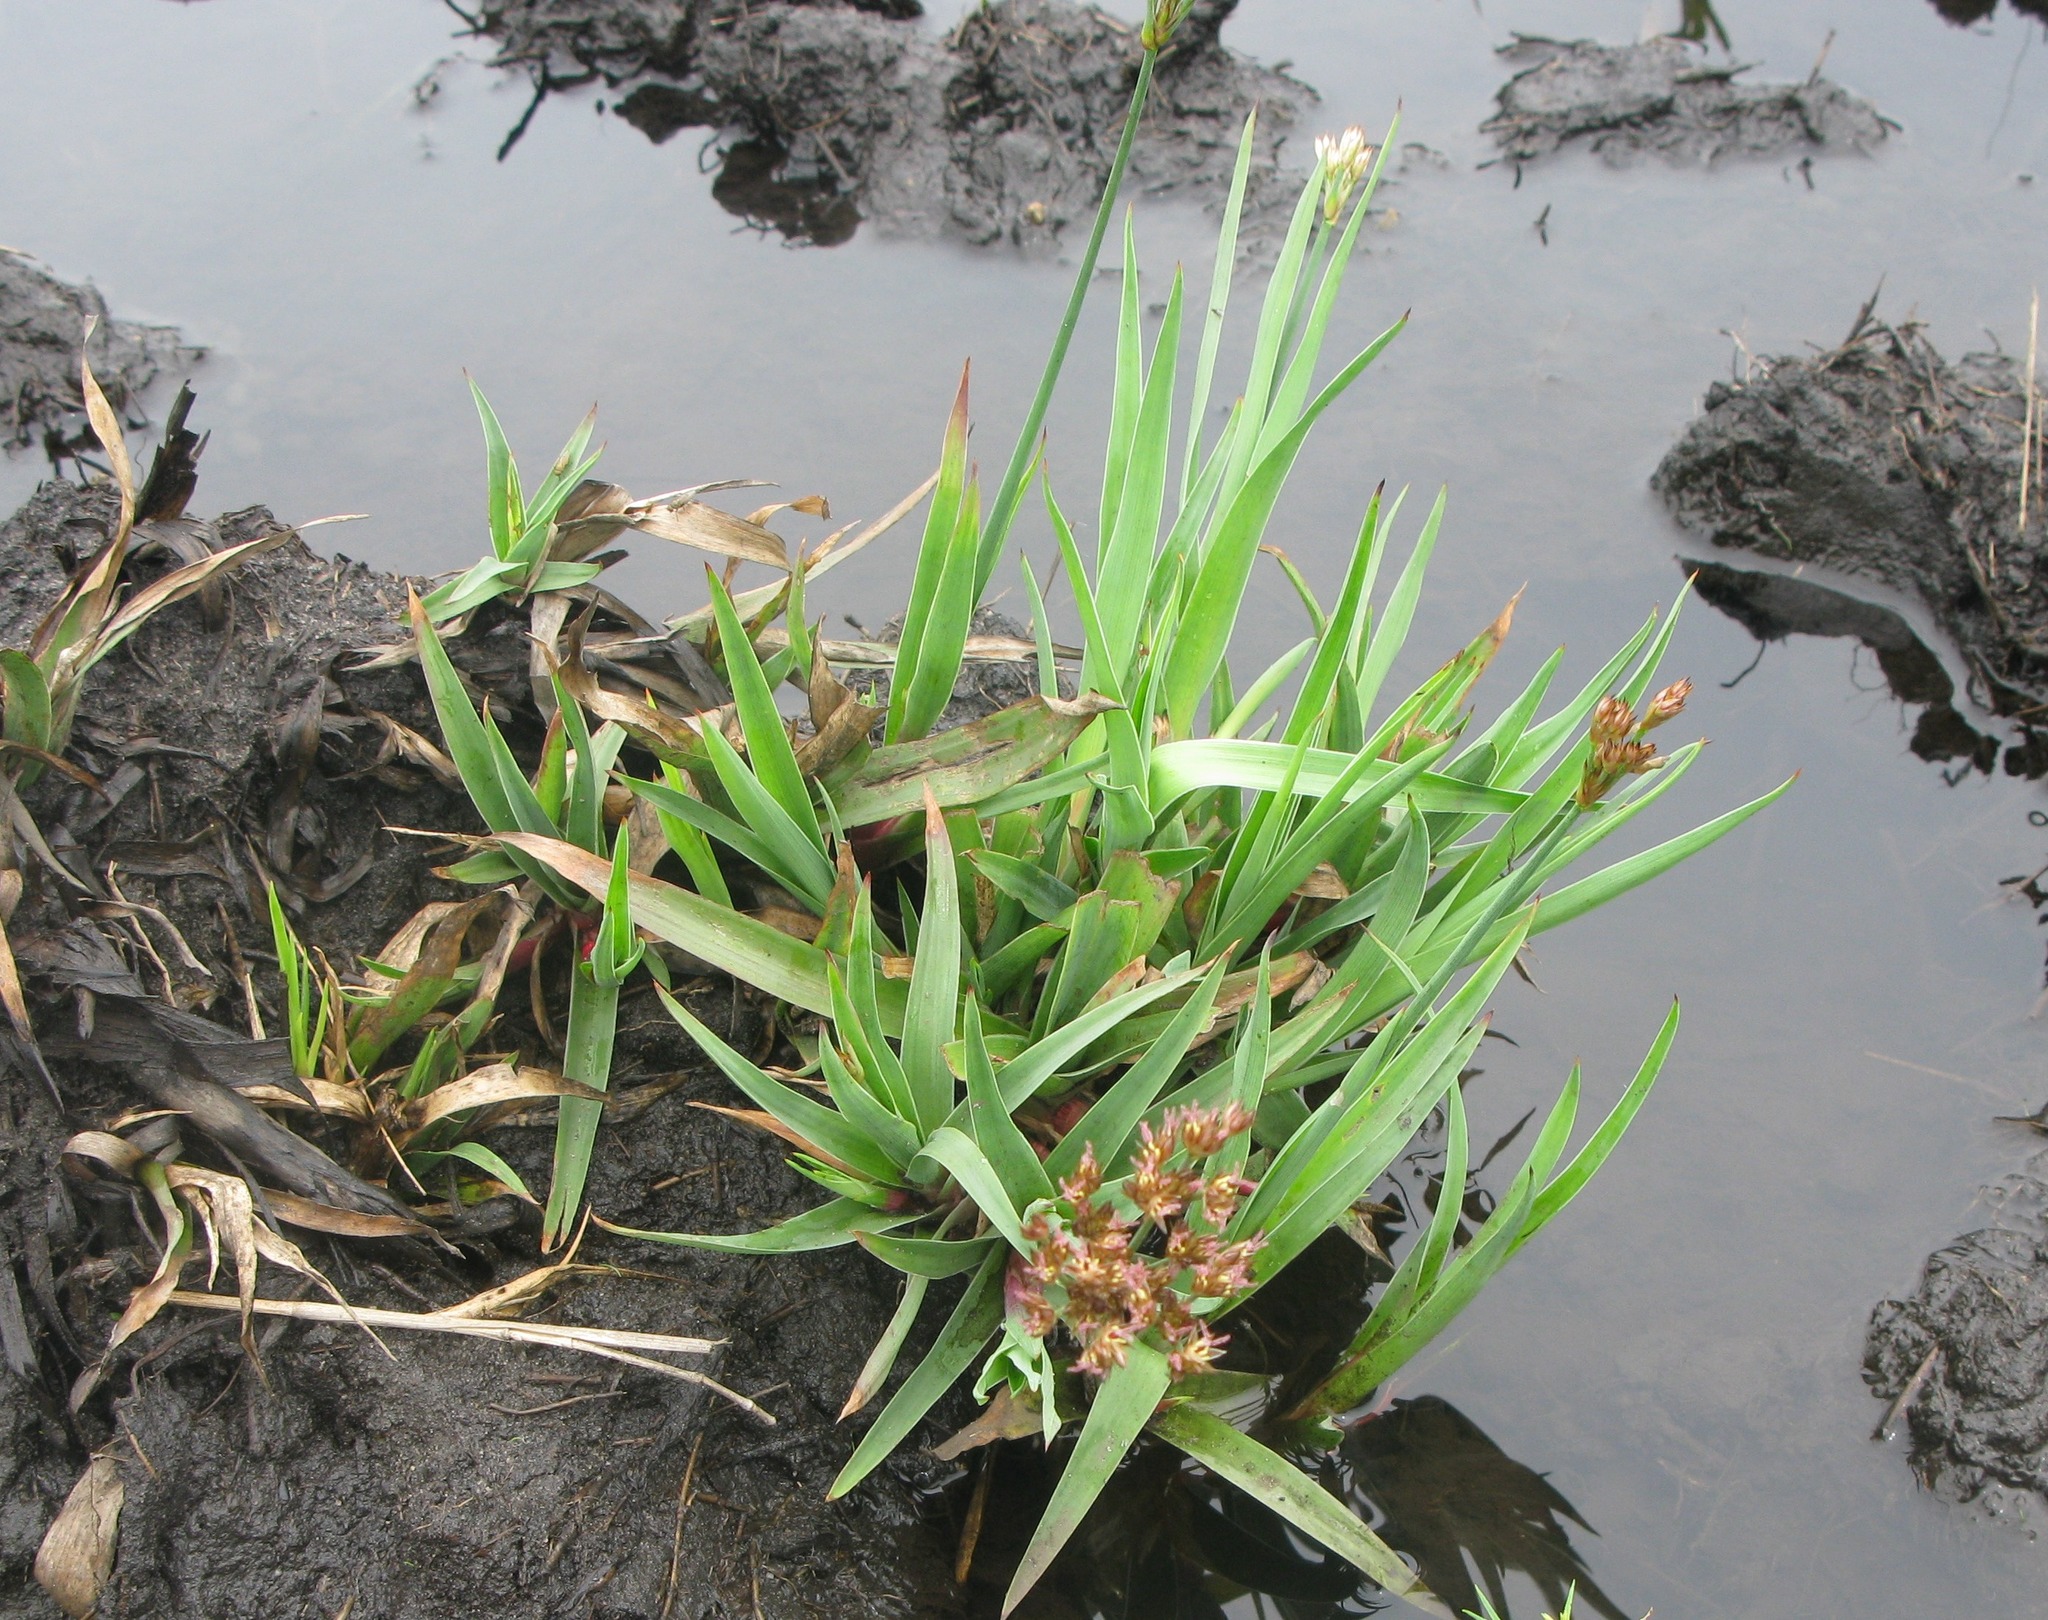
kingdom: Plantae
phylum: Tracheophyta
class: Liliopsida
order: Poales
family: Juncaceae
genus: Juncus
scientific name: Juncus lomatophyllus
